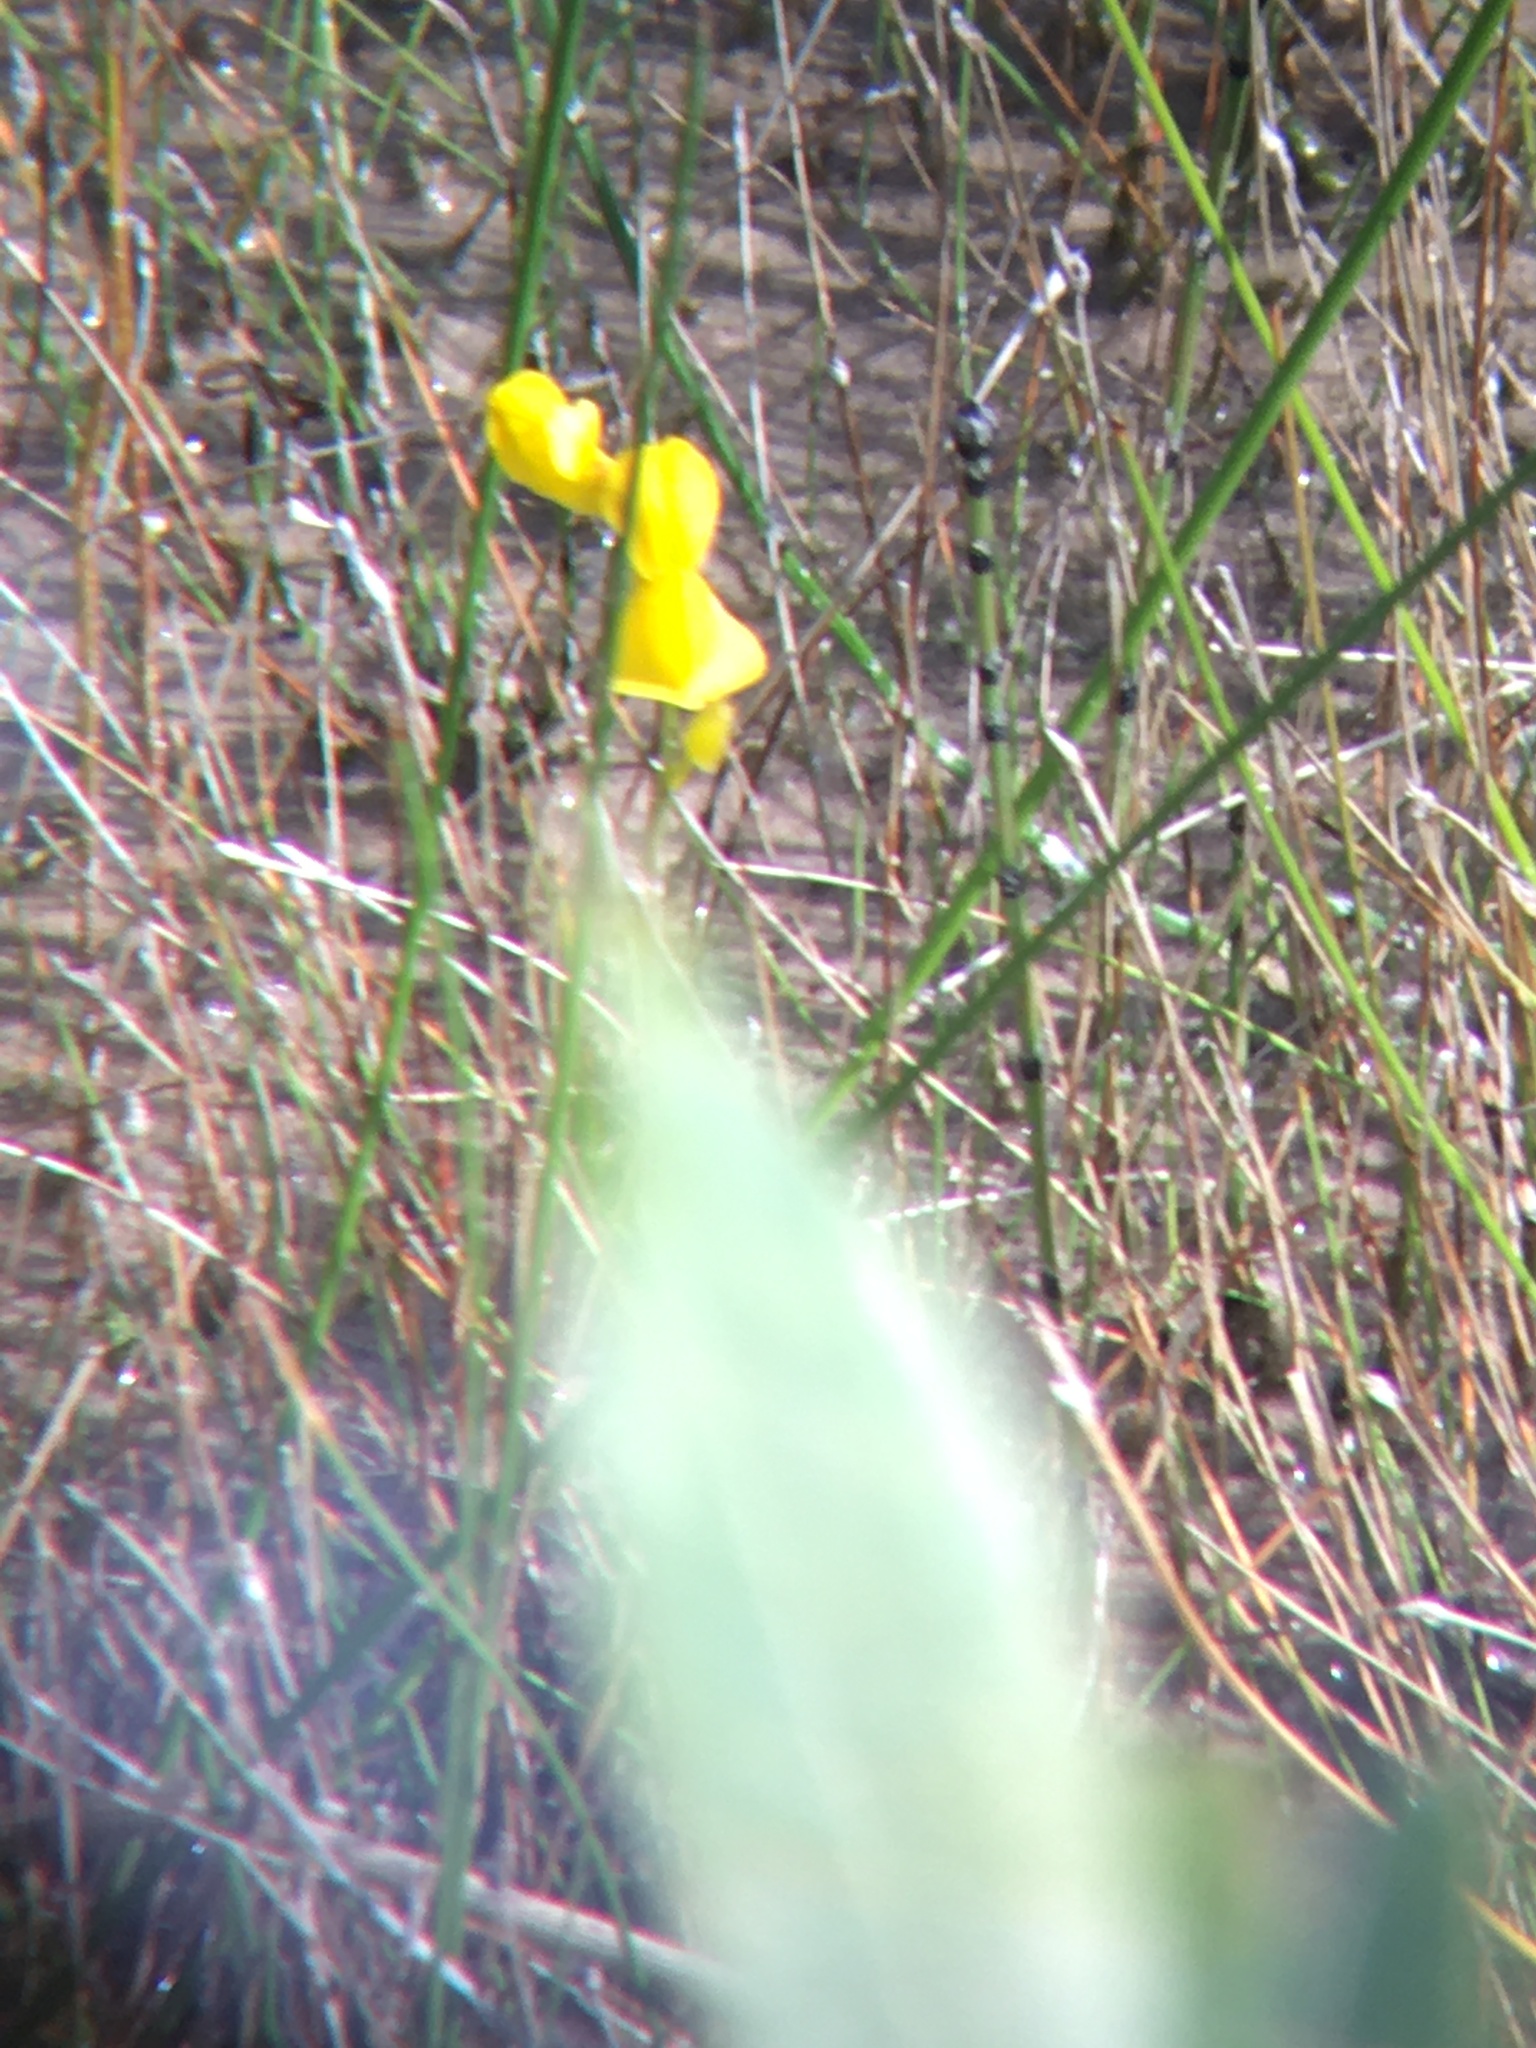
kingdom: Plantae
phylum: Tracheophyta
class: Magnoliopsida
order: Lamiales
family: Lentibulariaceae
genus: Utricularia
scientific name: Utricularia cornuta
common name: Horned bladderwort
